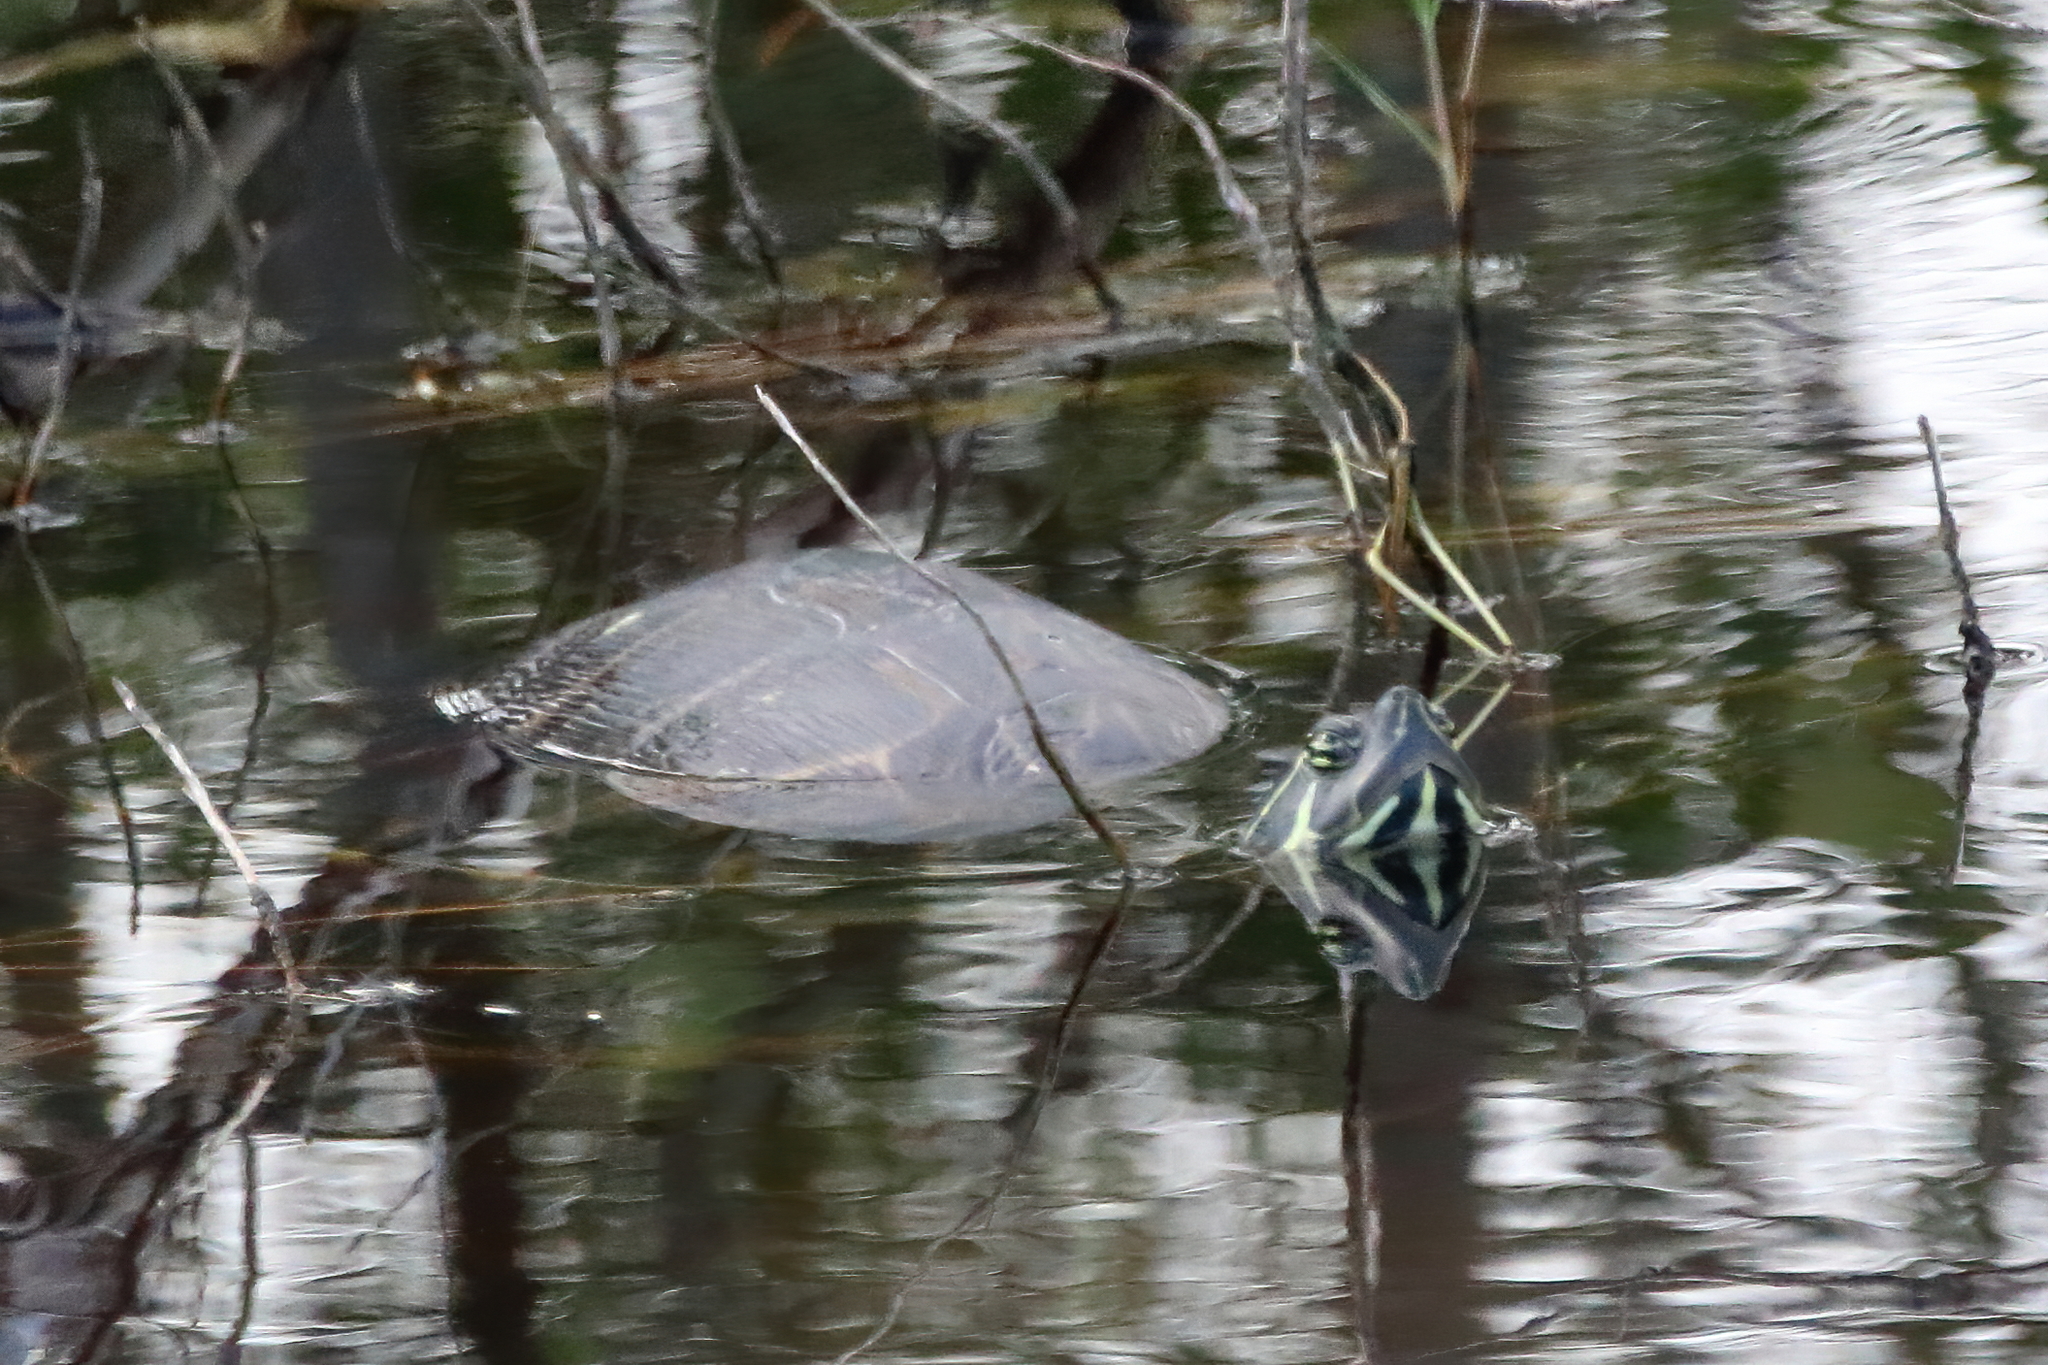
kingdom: Animalia
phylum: Chordata
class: Testudines
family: Emydidae
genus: Pseudemys
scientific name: Pseudemys peninsularis
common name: Peninsula cooter
